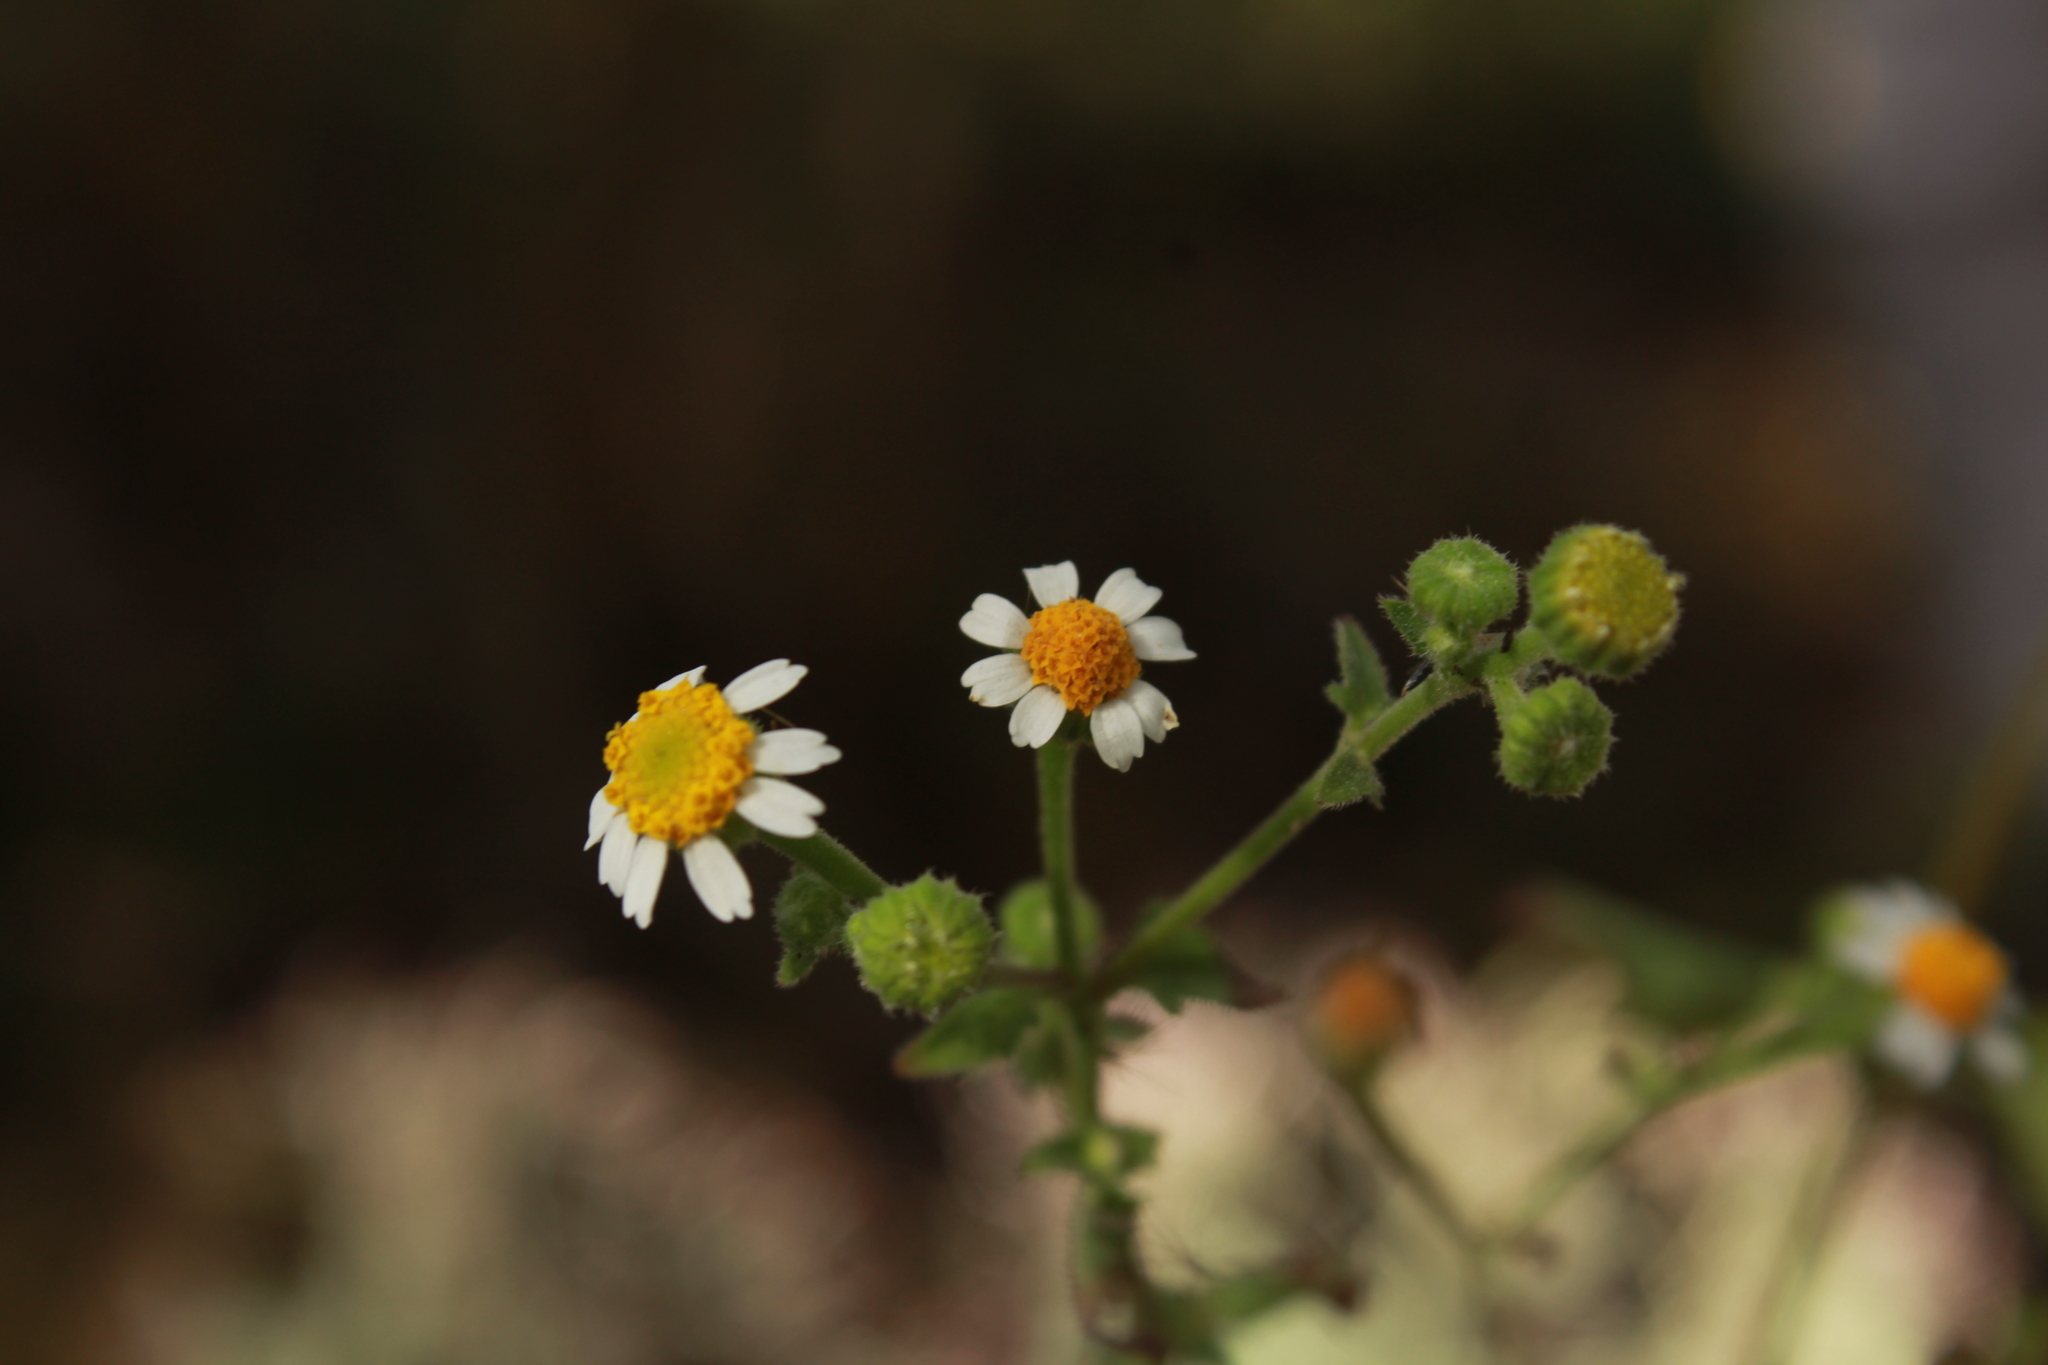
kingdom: Plantae
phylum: Tracheophyta
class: Magnoliopsida
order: Asterales
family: Asteraceae
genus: Galinsogeopsis
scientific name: Galinsogeopsis spilanthoides
